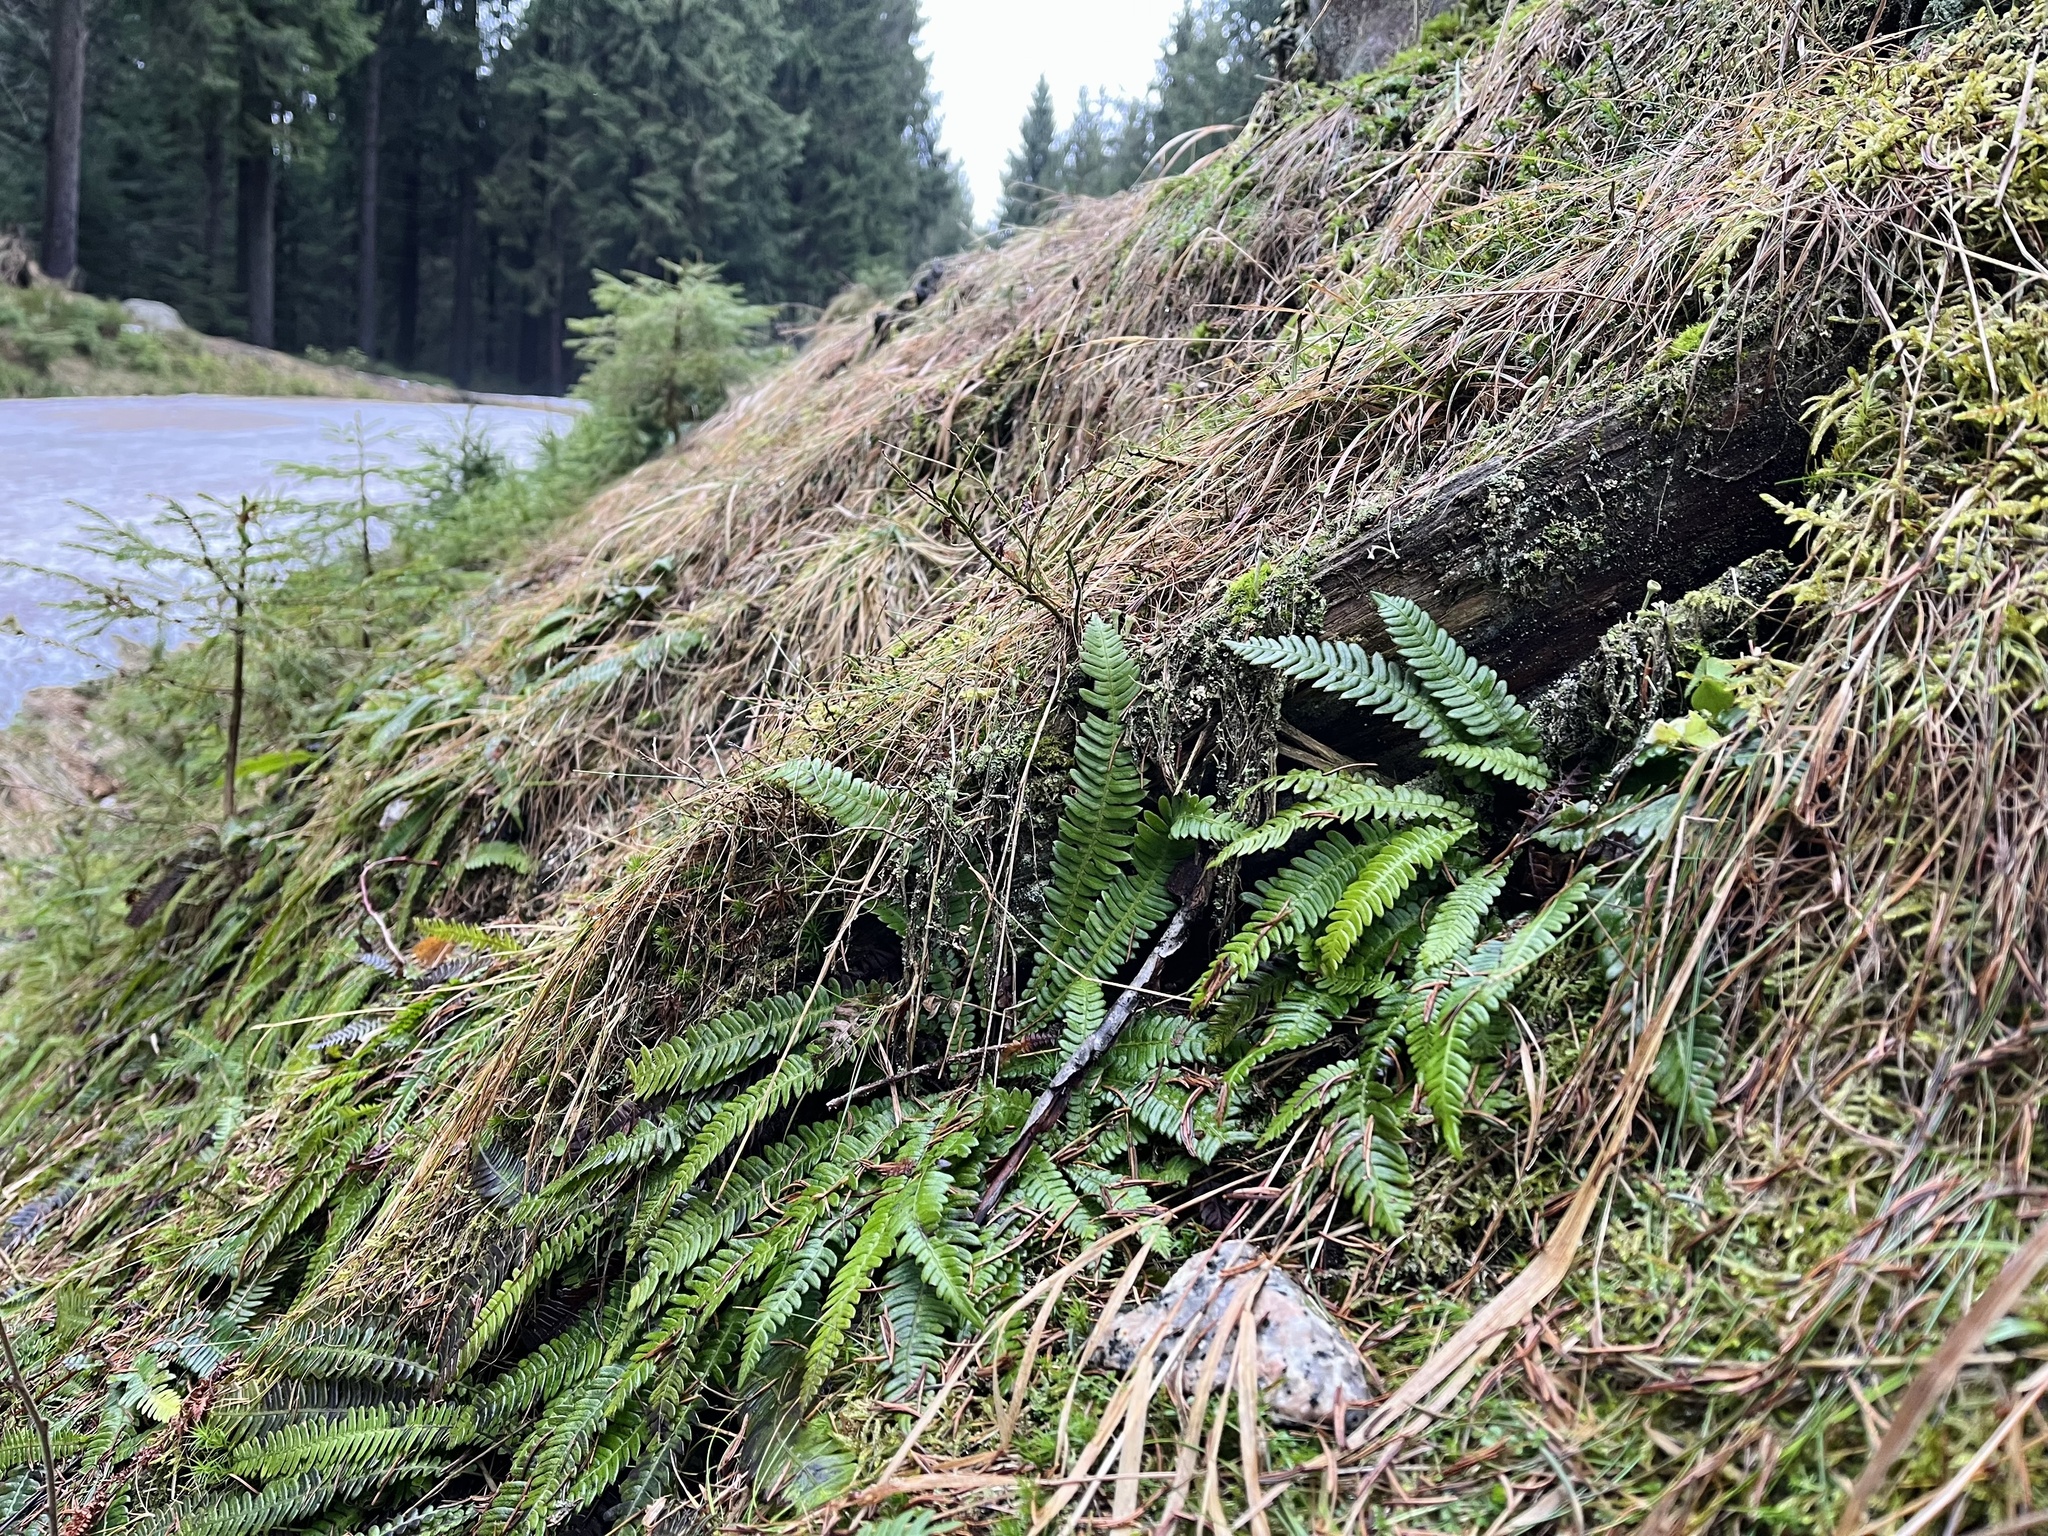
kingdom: Plantae
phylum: Tracheophyta
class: Polypodiopsida
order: Polypodiales
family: Blechnaceae
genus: Struthiopteris
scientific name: Struthiopteris spicant
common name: Deer fern
